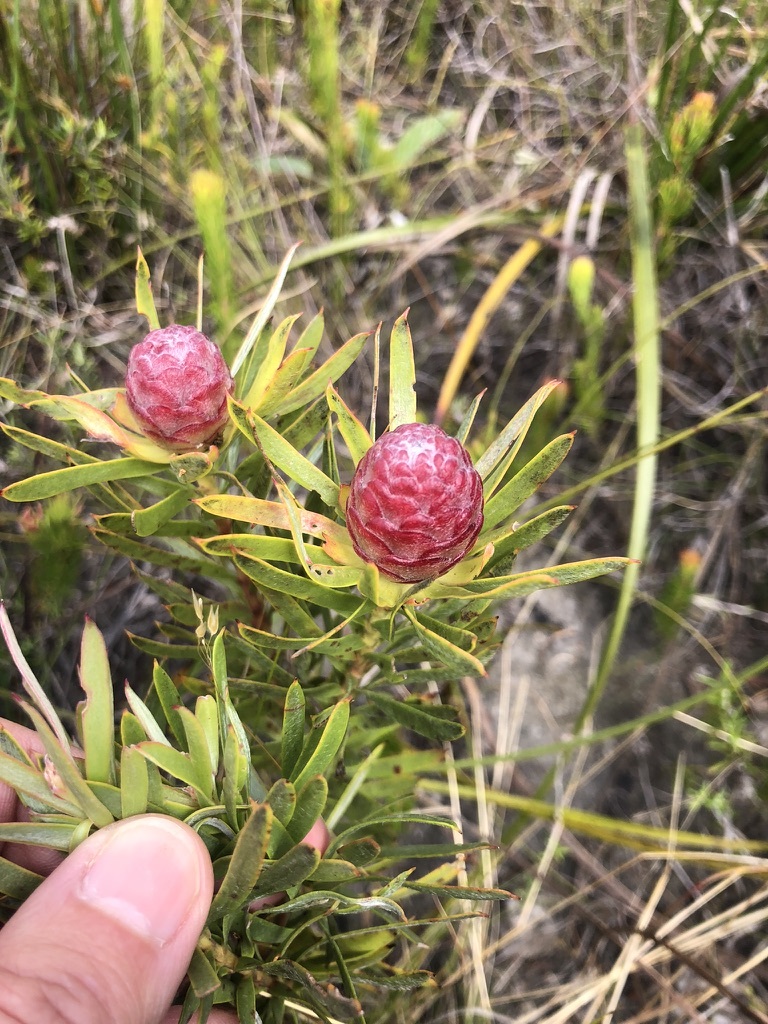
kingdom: Plantae
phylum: Tracheophyta
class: Magnoliopsida
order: Proteales
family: Proteaceae
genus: Leucadendron
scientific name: Leucadendron modestum
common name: Rough-leaf conebush
